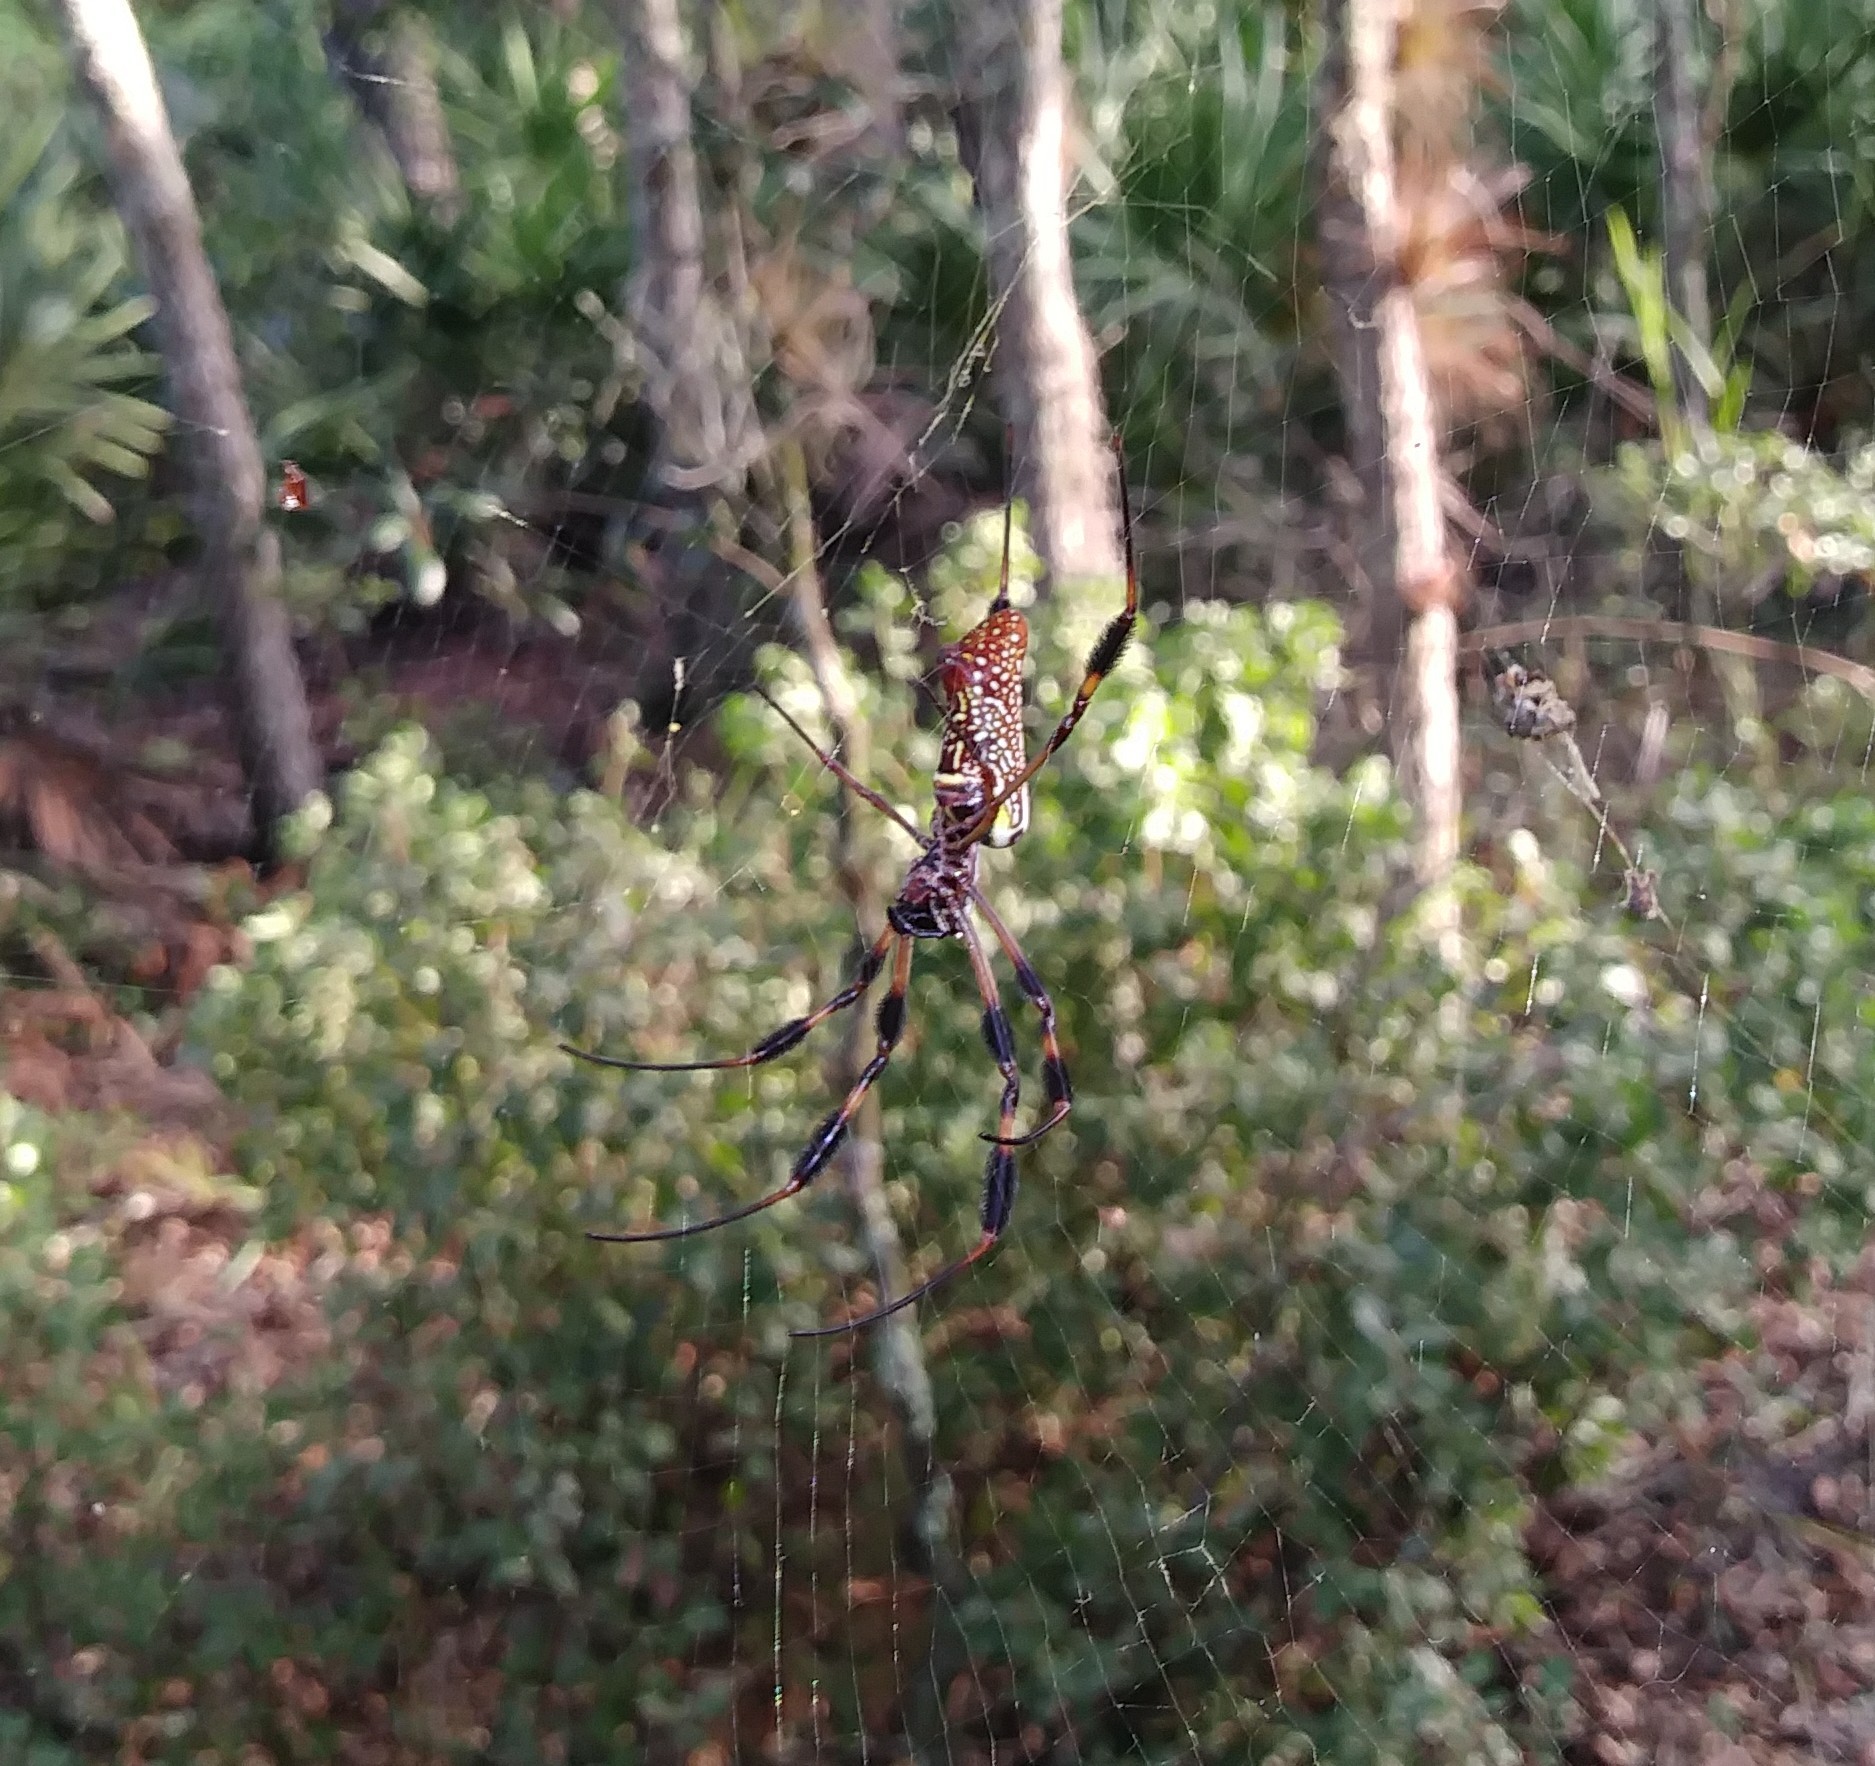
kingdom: Animalia
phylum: Arthropoda
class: Arachnida
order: Araneae
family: Araneidae
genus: Trichonephila
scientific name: Trichonephila clavipes
